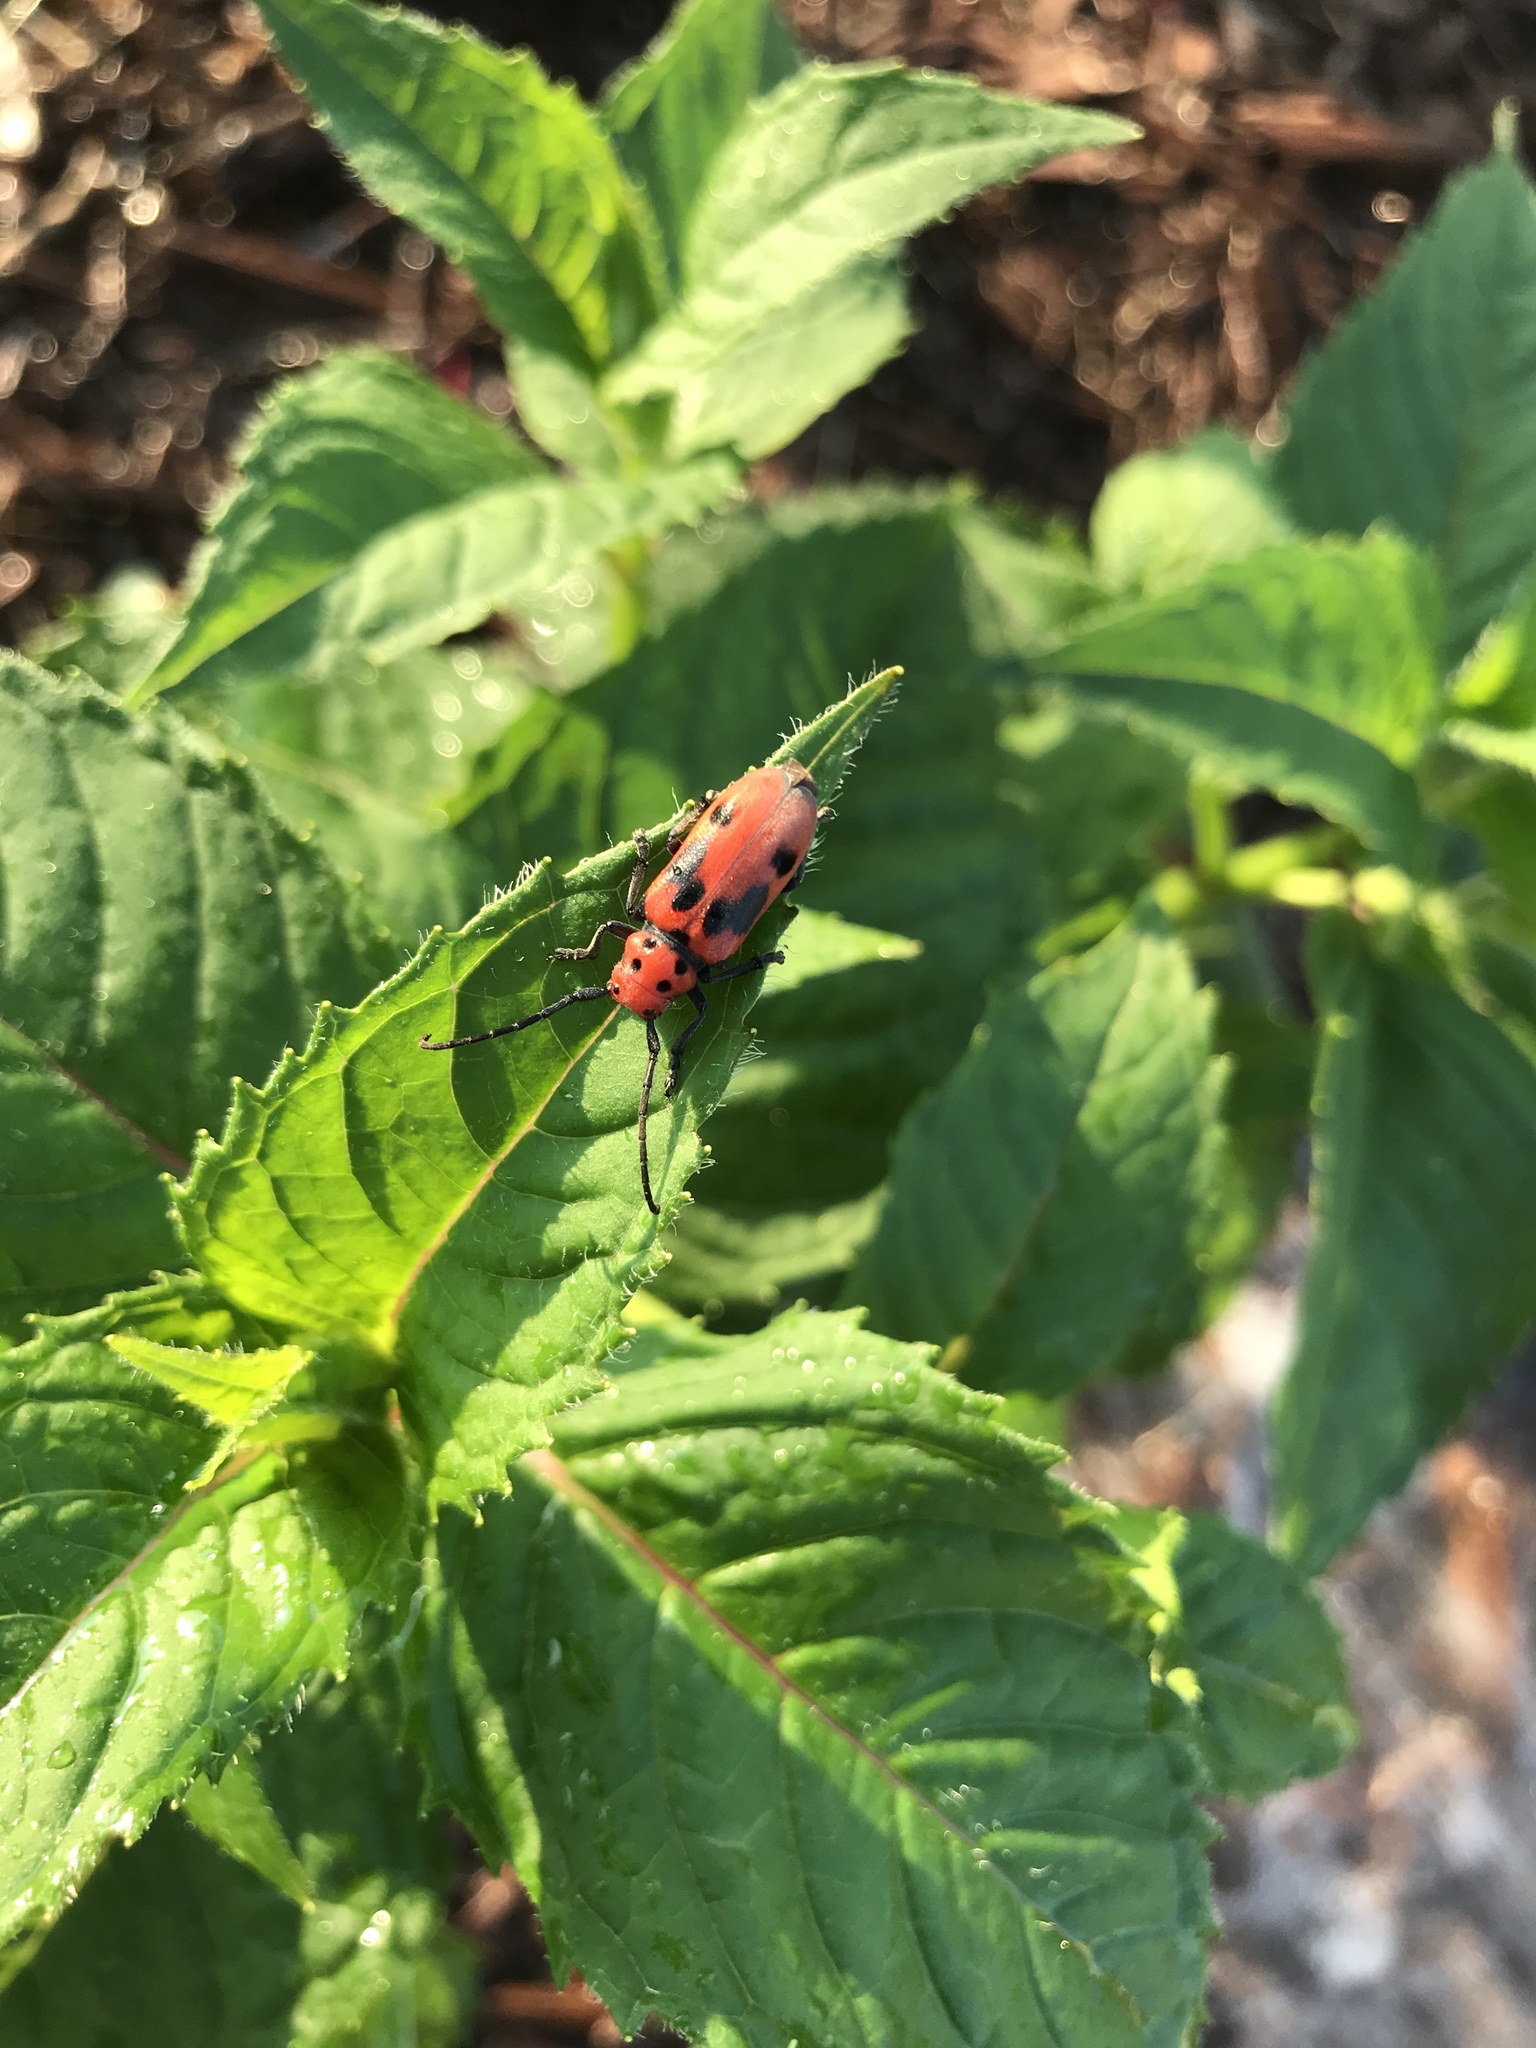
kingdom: Animalia
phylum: Arthropoda
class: Insecta
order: Coleoptera
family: Cerambycidae
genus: Tetraopes
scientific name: Tetraopes tetrophthalmus
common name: Red milkweed beetle
